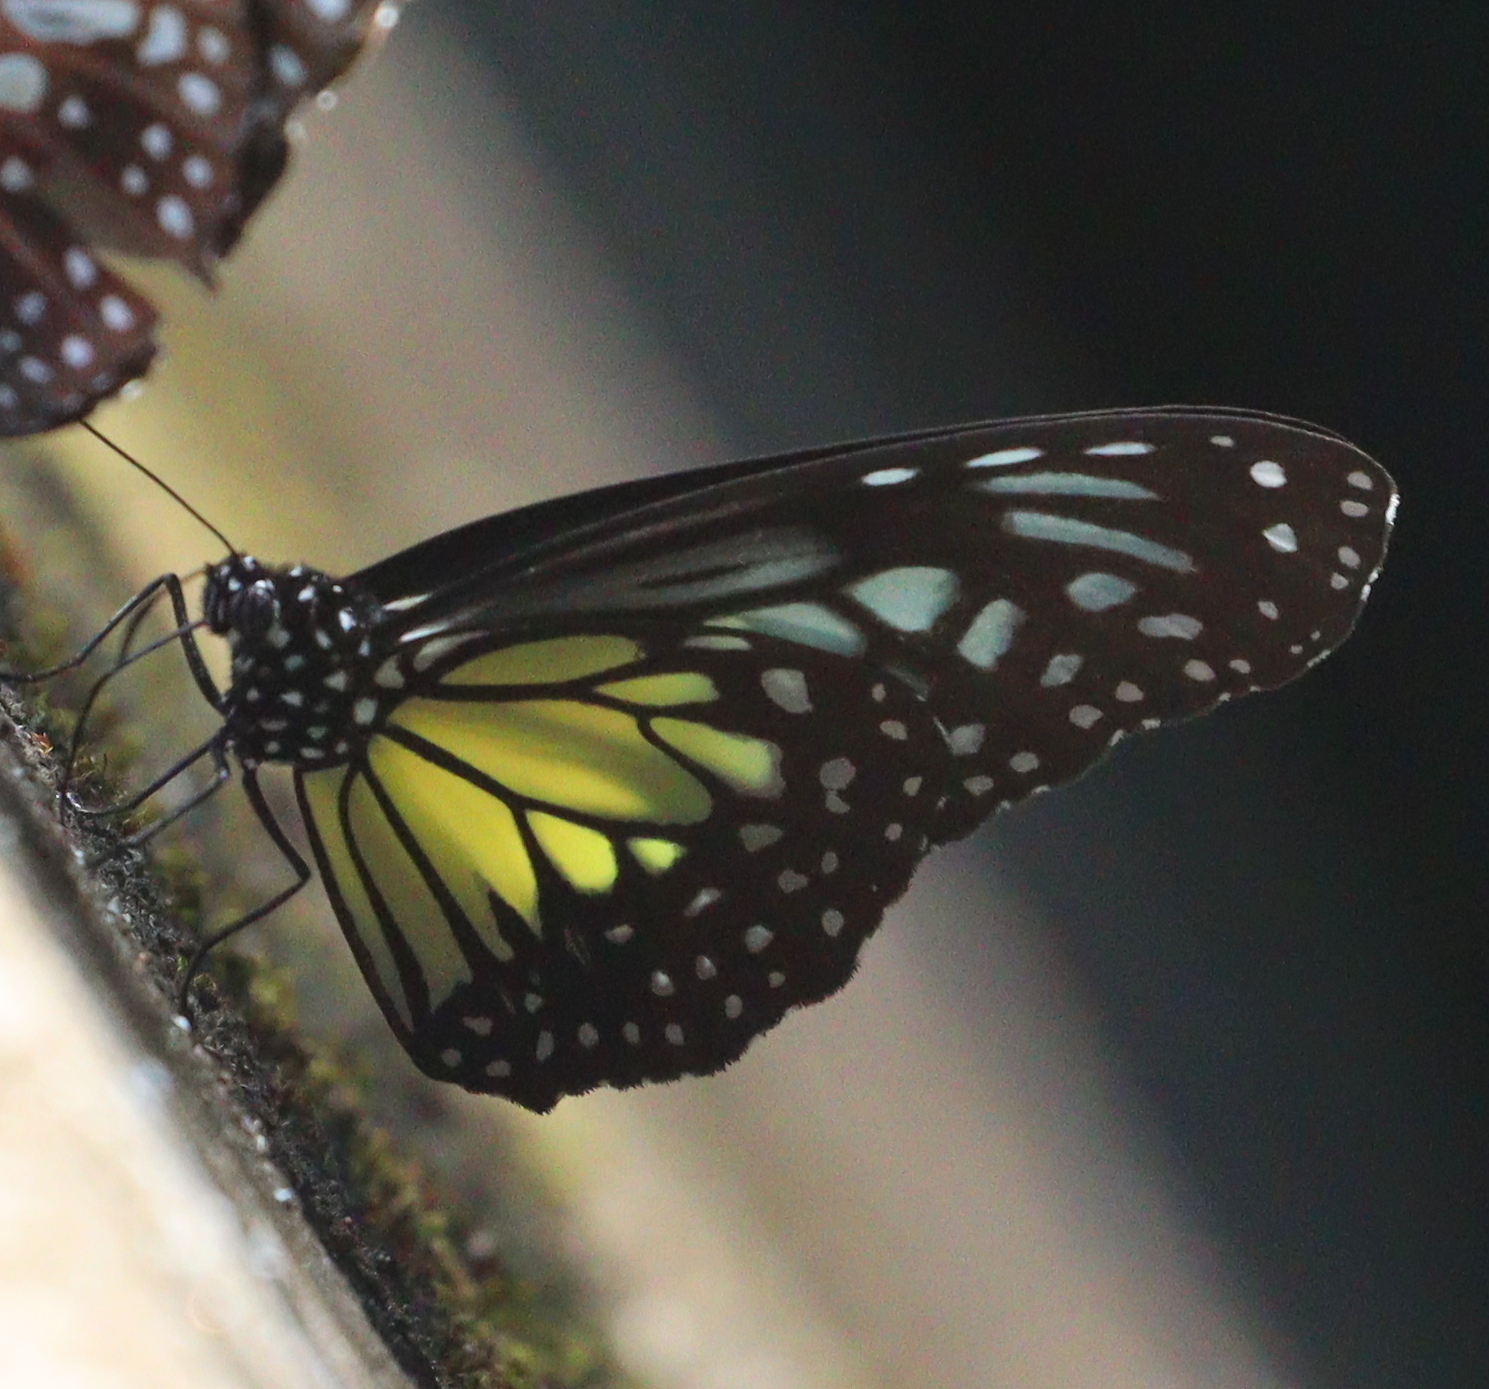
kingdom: Animalia
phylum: Arthropoda
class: Insecta
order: Lepidoptera
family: Nymphalidae
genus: Parantica
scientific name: Parantica aspasia
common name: Yellow glassy tiger
